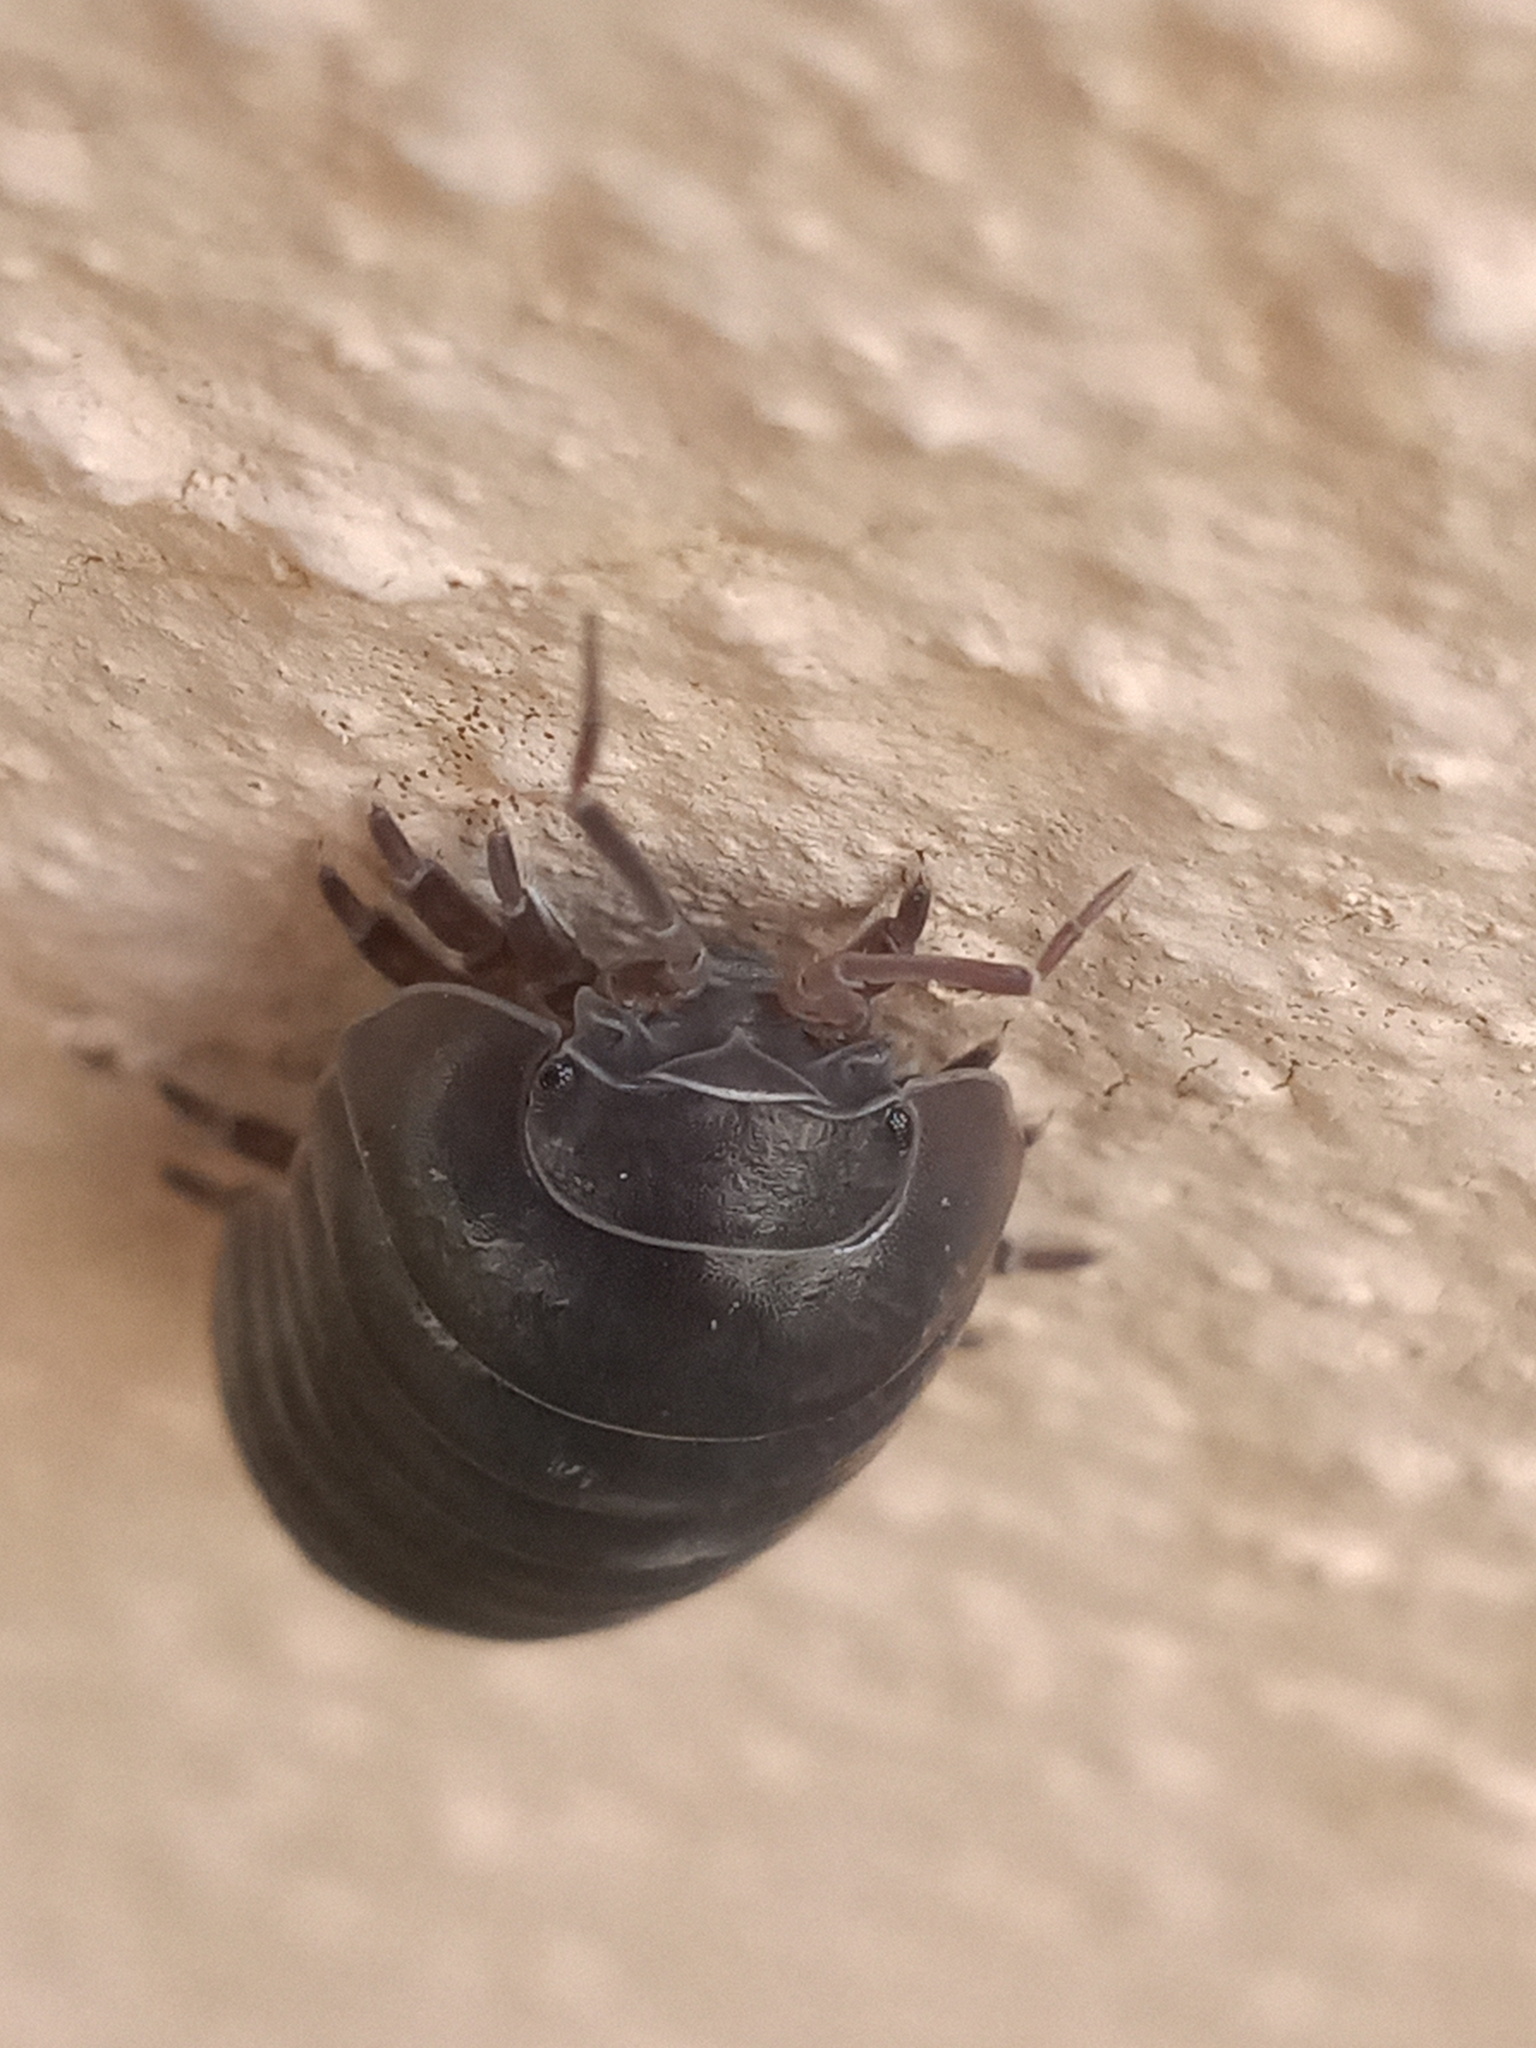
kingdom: Animalia
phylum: Arthropoda
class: Malacostraca
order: Isopoda
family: Armadillidiidae
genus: Armadillidium
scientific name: Armadillidium vulgare
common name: Common pill woodlouse
